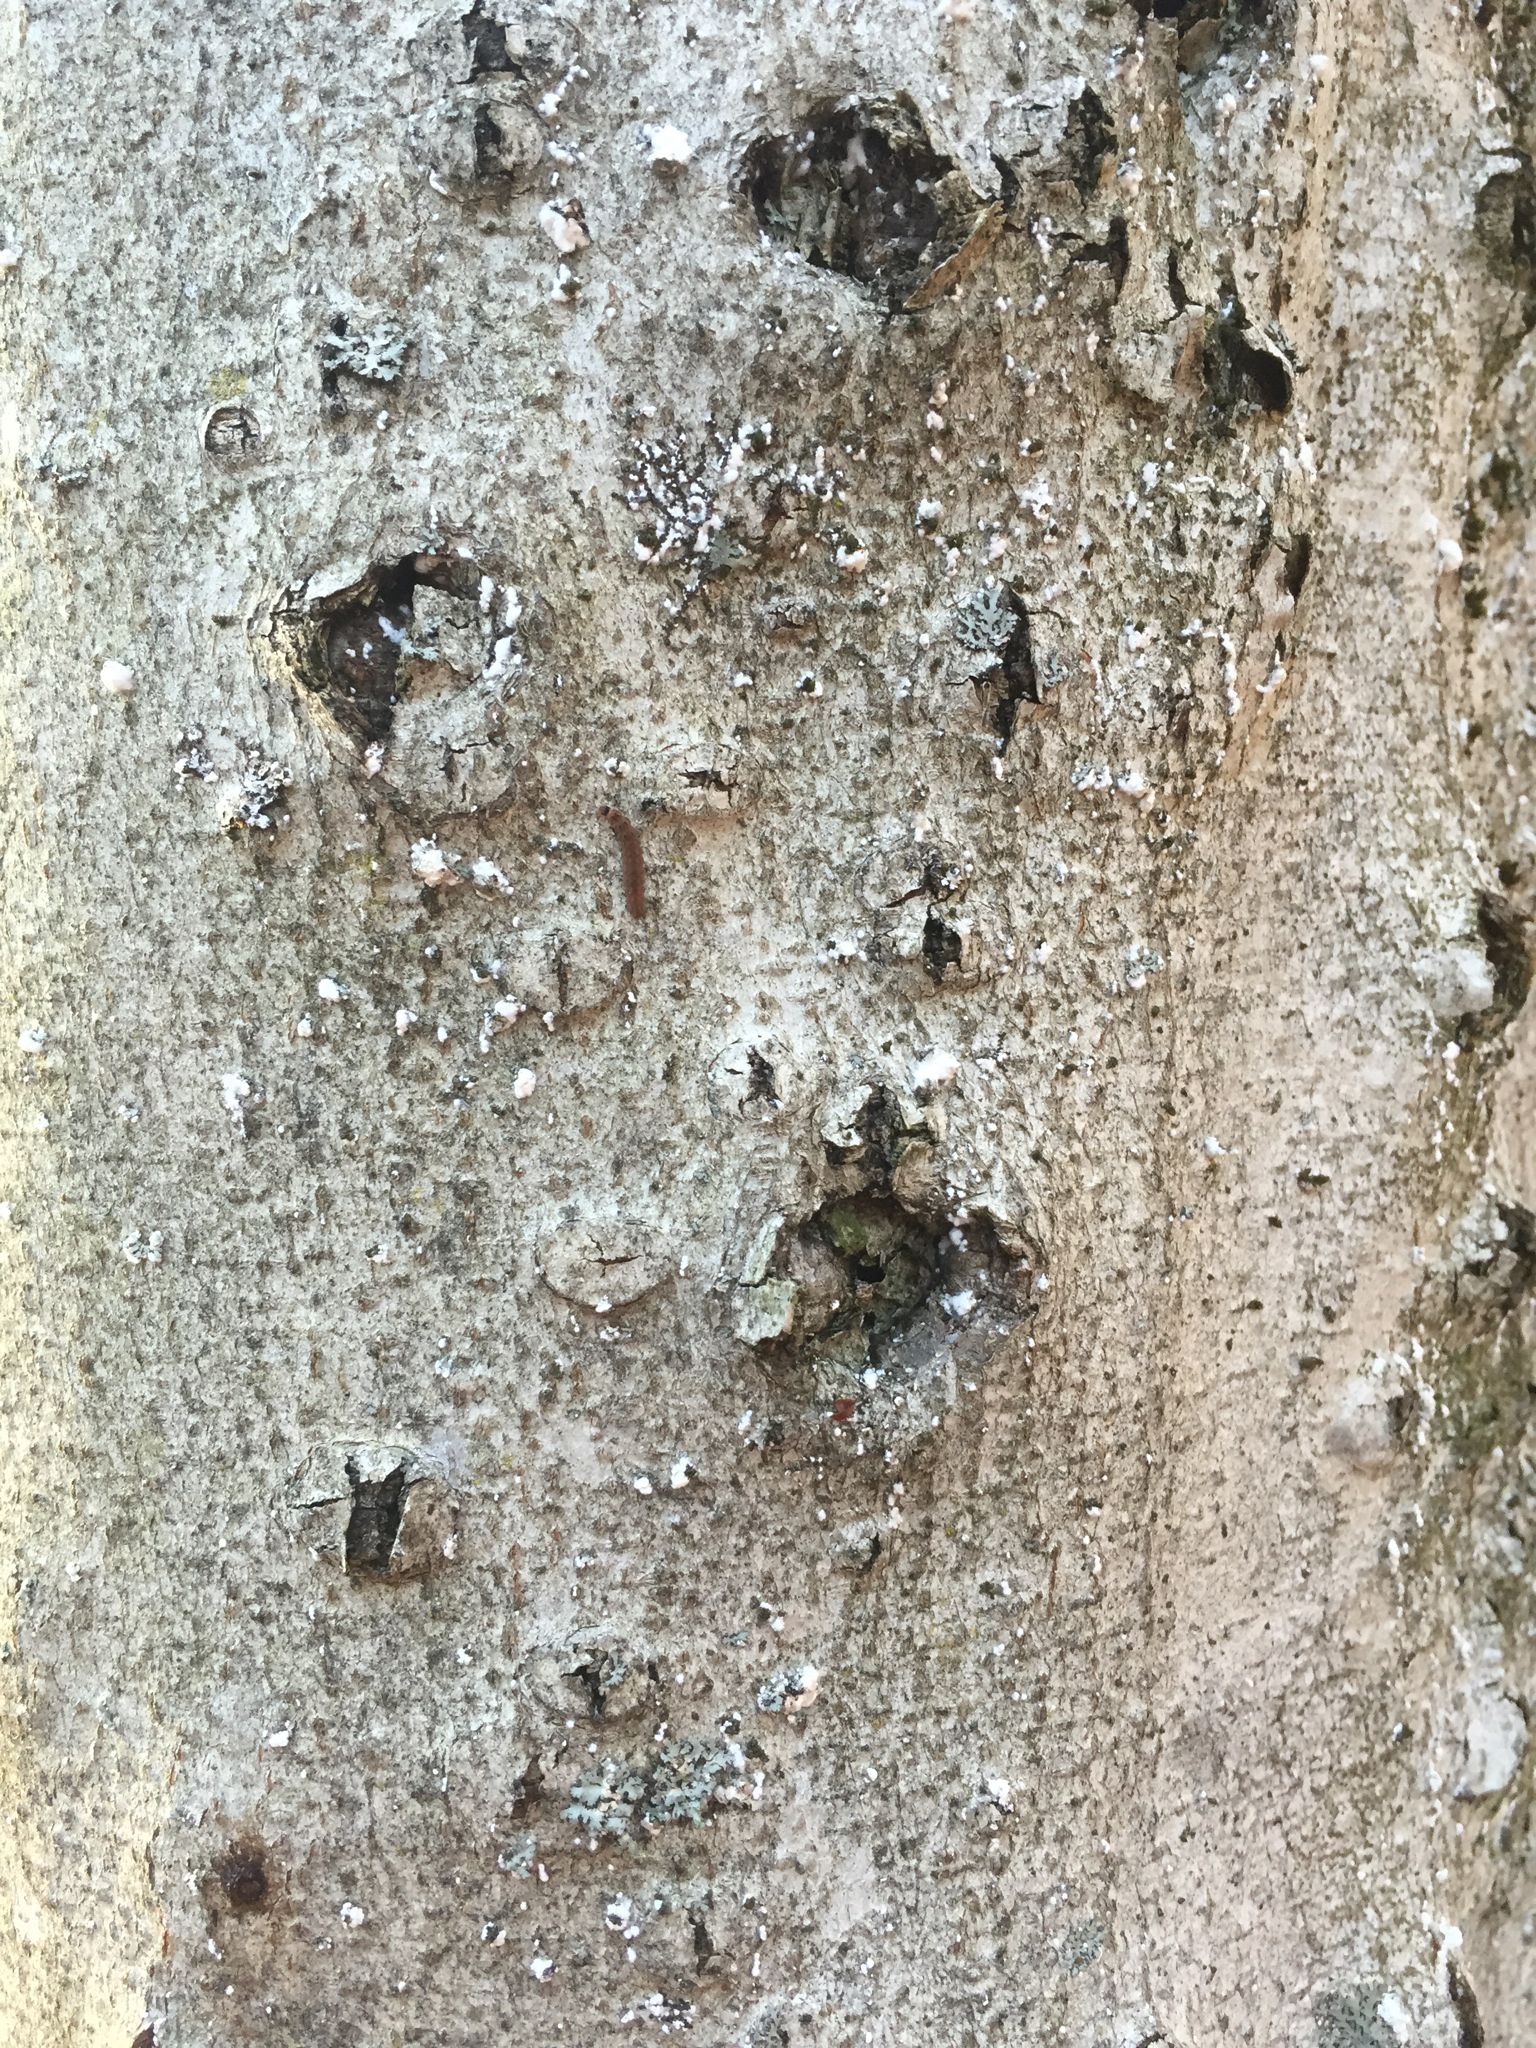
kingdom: Animalia
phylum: Arthropoda
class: Insecta
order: Hemiptera
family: Eriococcidae
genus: Cryptococcus
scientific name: Cryptococcus fagisuga
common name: Beech scale
